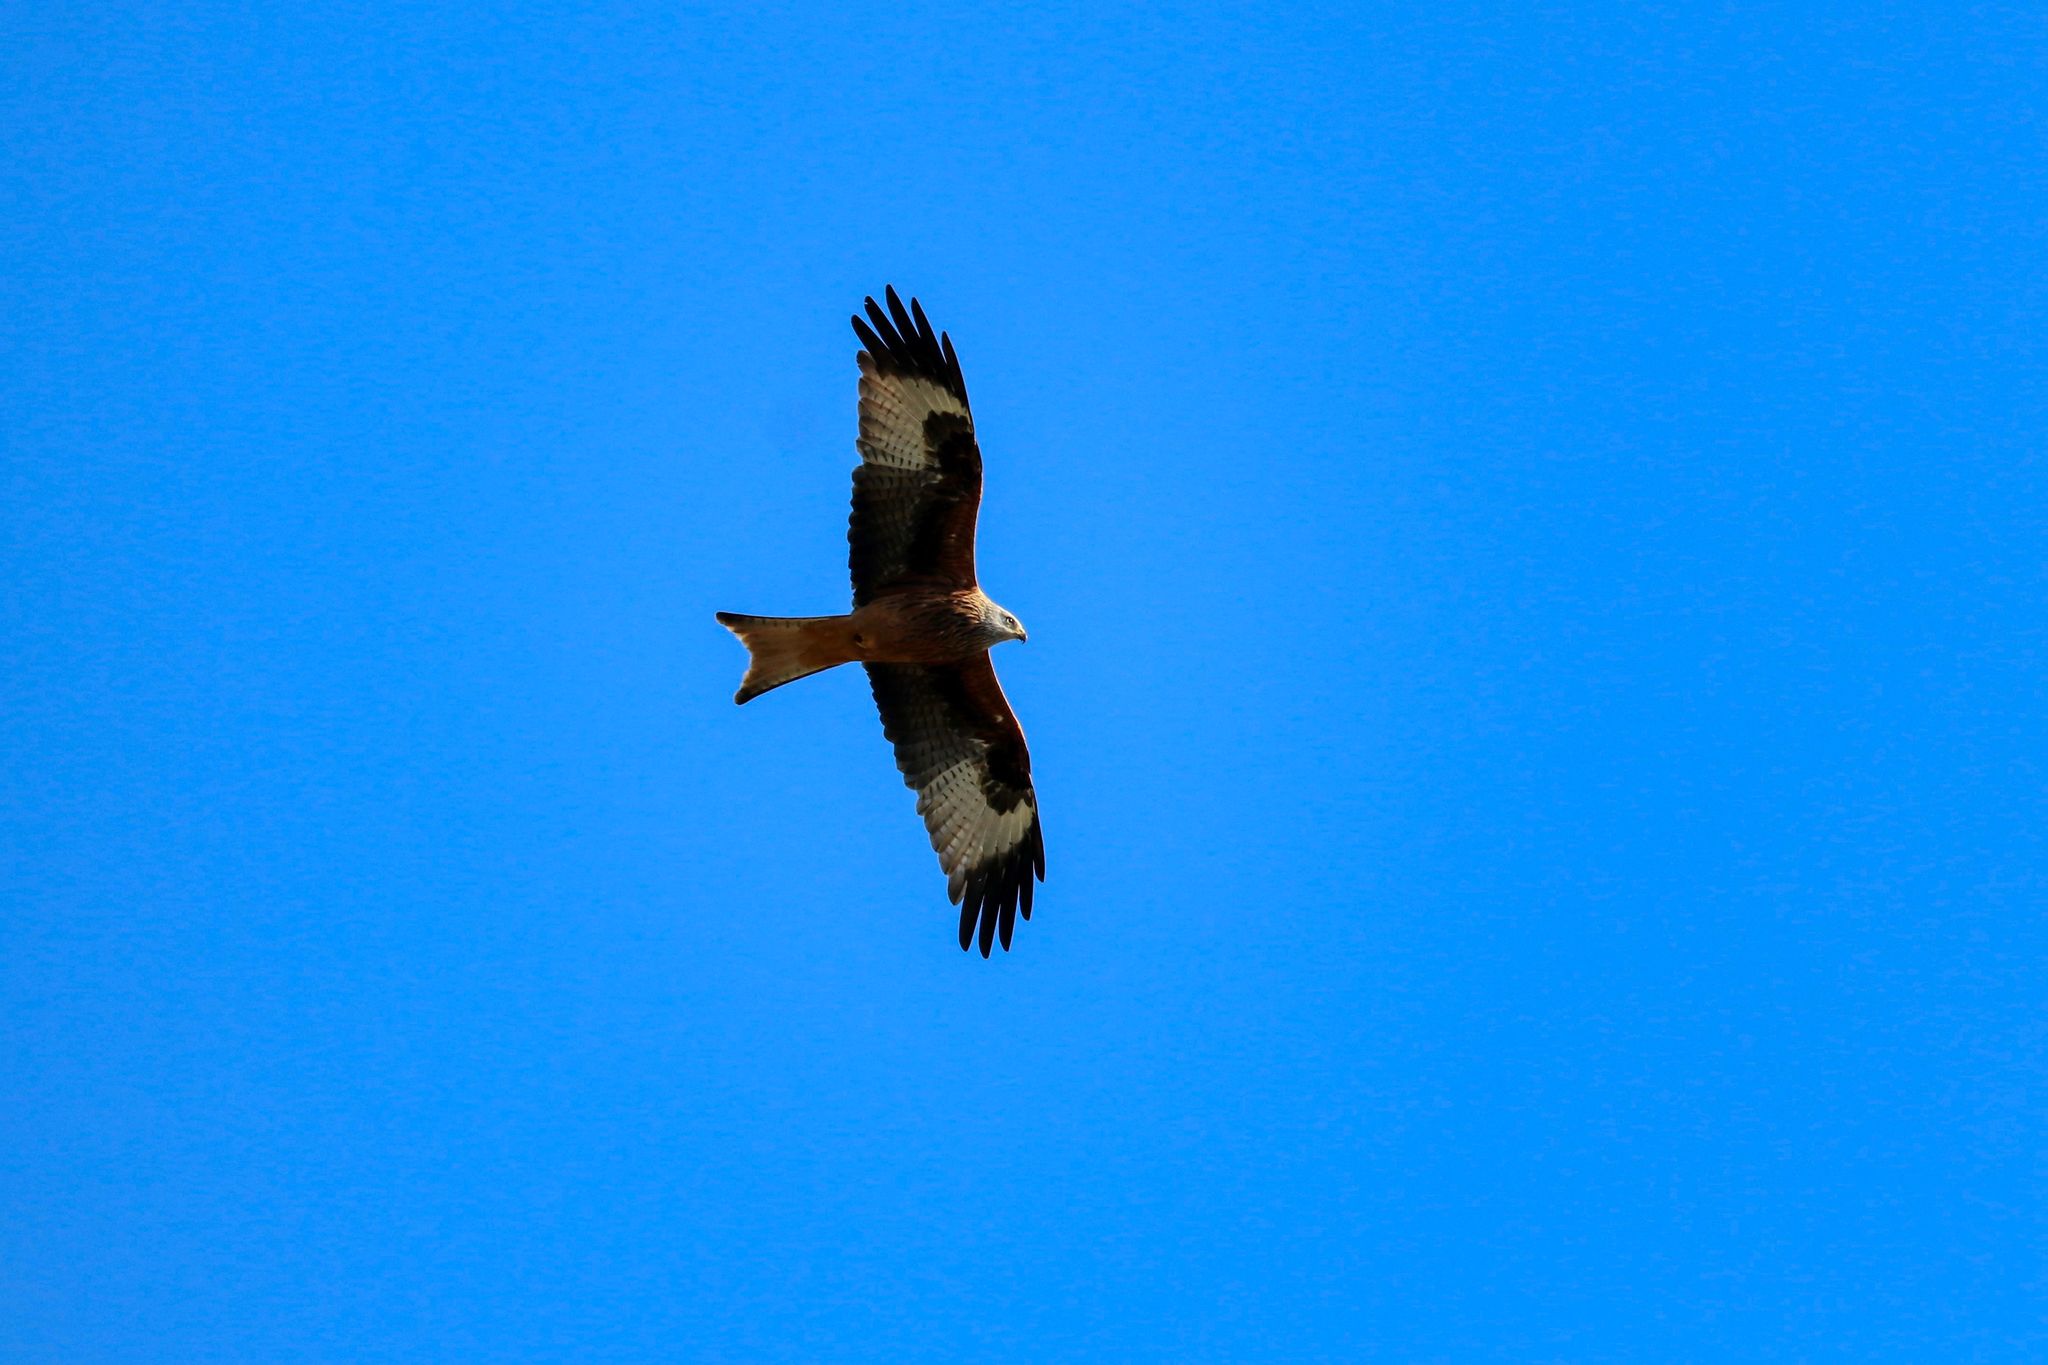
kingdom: Animalia
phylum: Chordata
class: Aves
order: Accipitriformes
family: Accipitridae
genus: Milvus
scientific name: Milvus milvus
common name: Red kite
